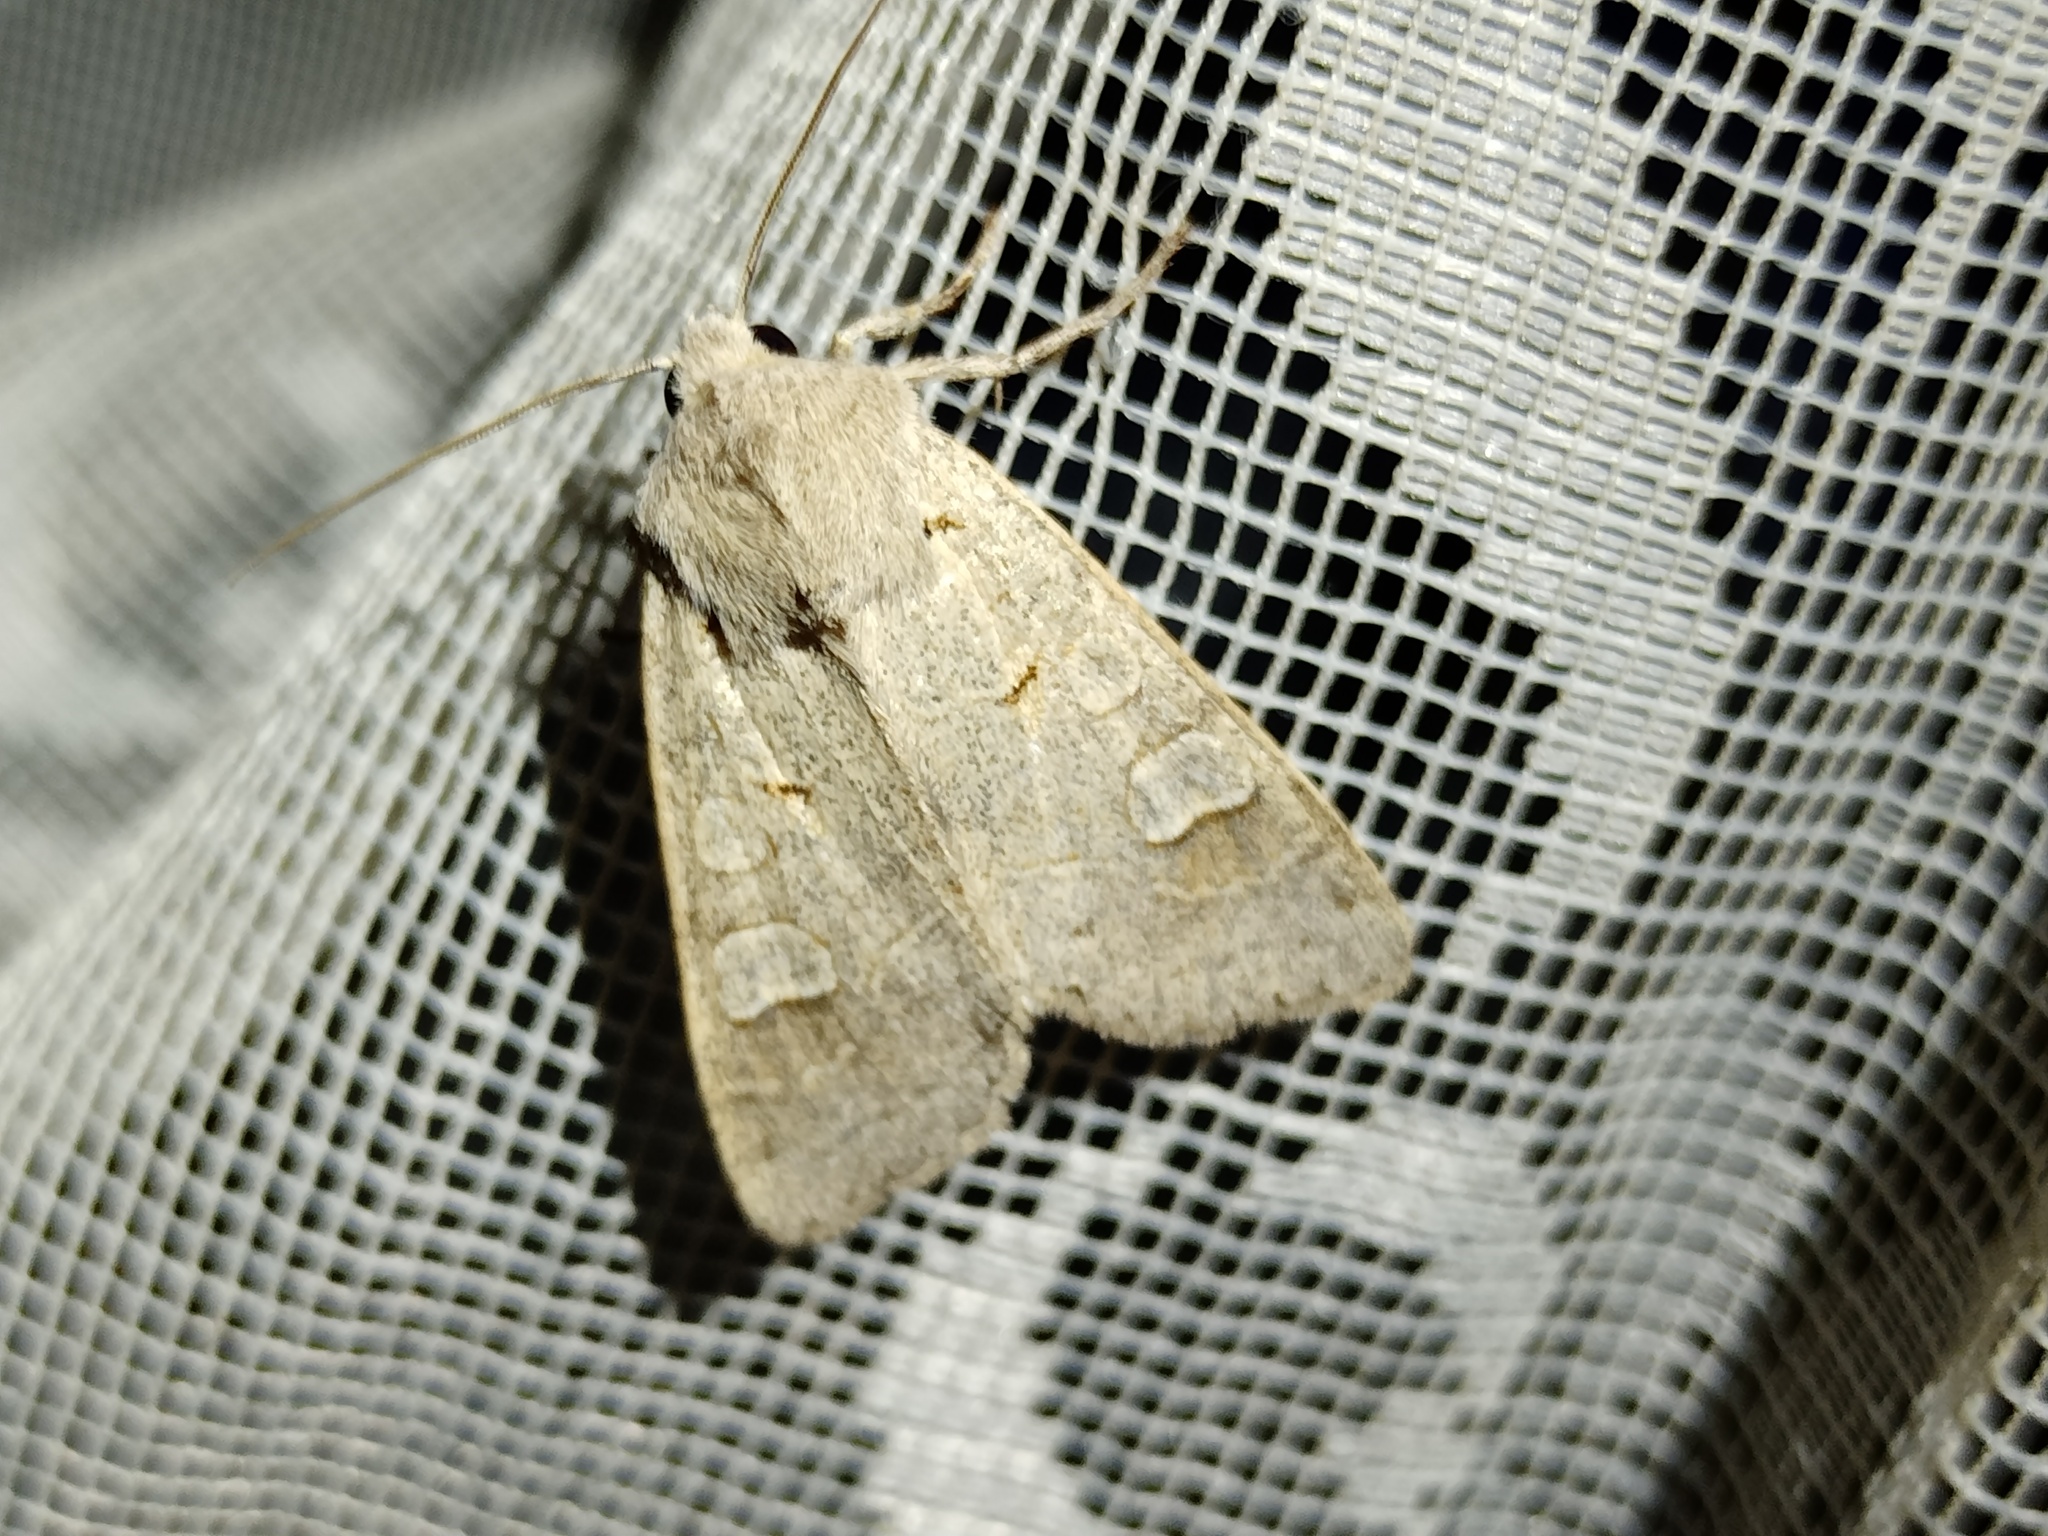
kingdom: Animalia
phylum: Arthropoda
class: Insecta
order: Lepidoptera
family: Noctuidae
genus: Ammoconia
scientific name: Ammoconia caecimacula
